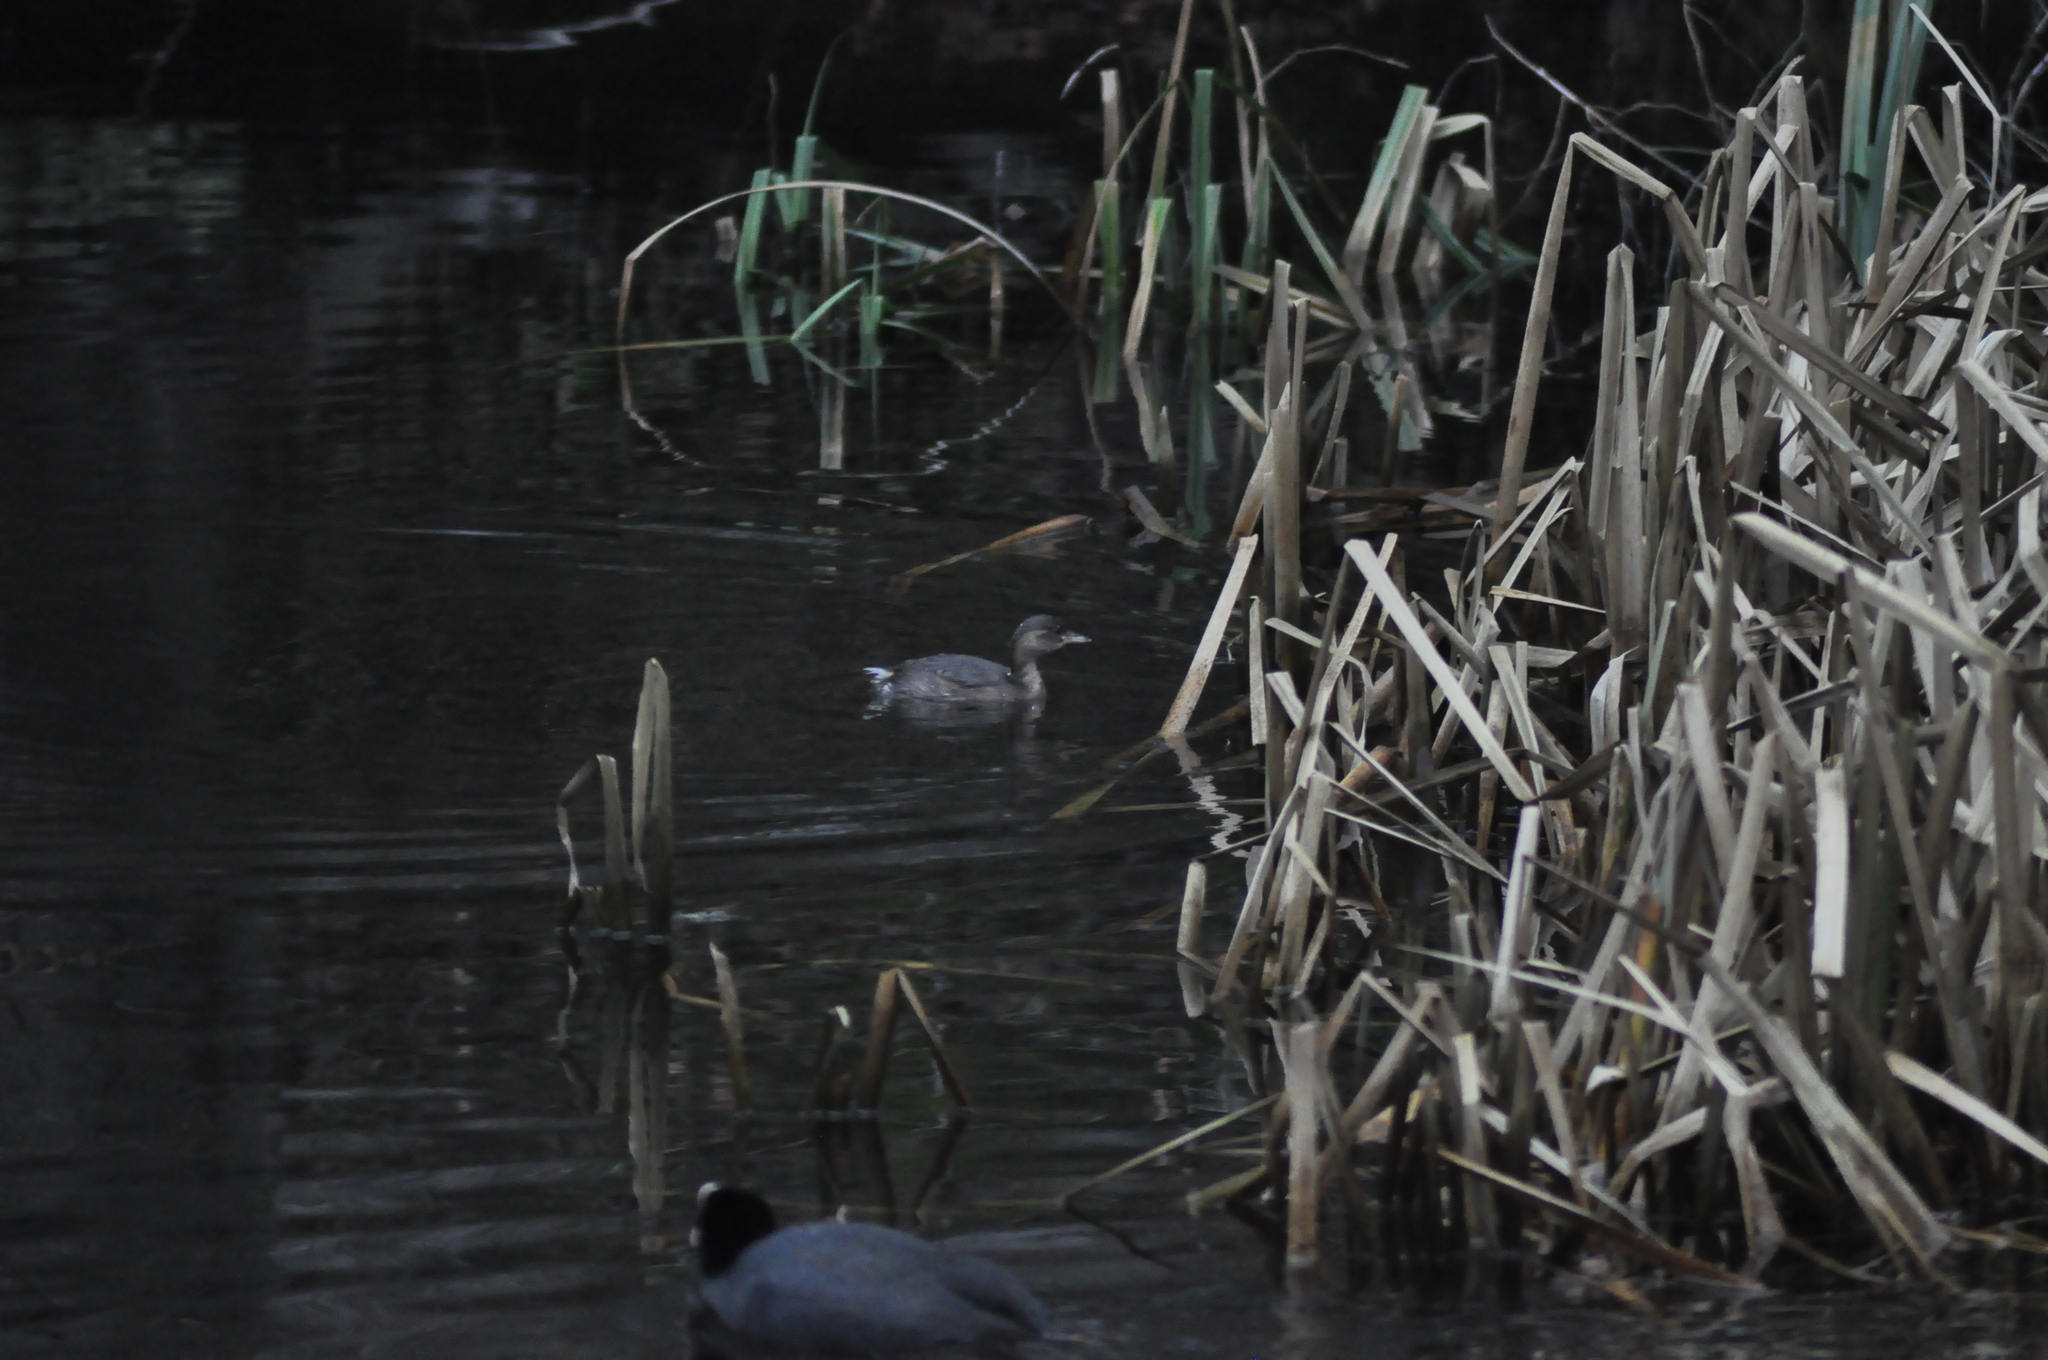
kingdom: Animalia
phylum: Chordata
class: Aves
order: Podicipediformes
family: Podicipedidae
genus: Tachybaptus
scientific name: Tachybaptus ruficollis
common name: Little grebe
